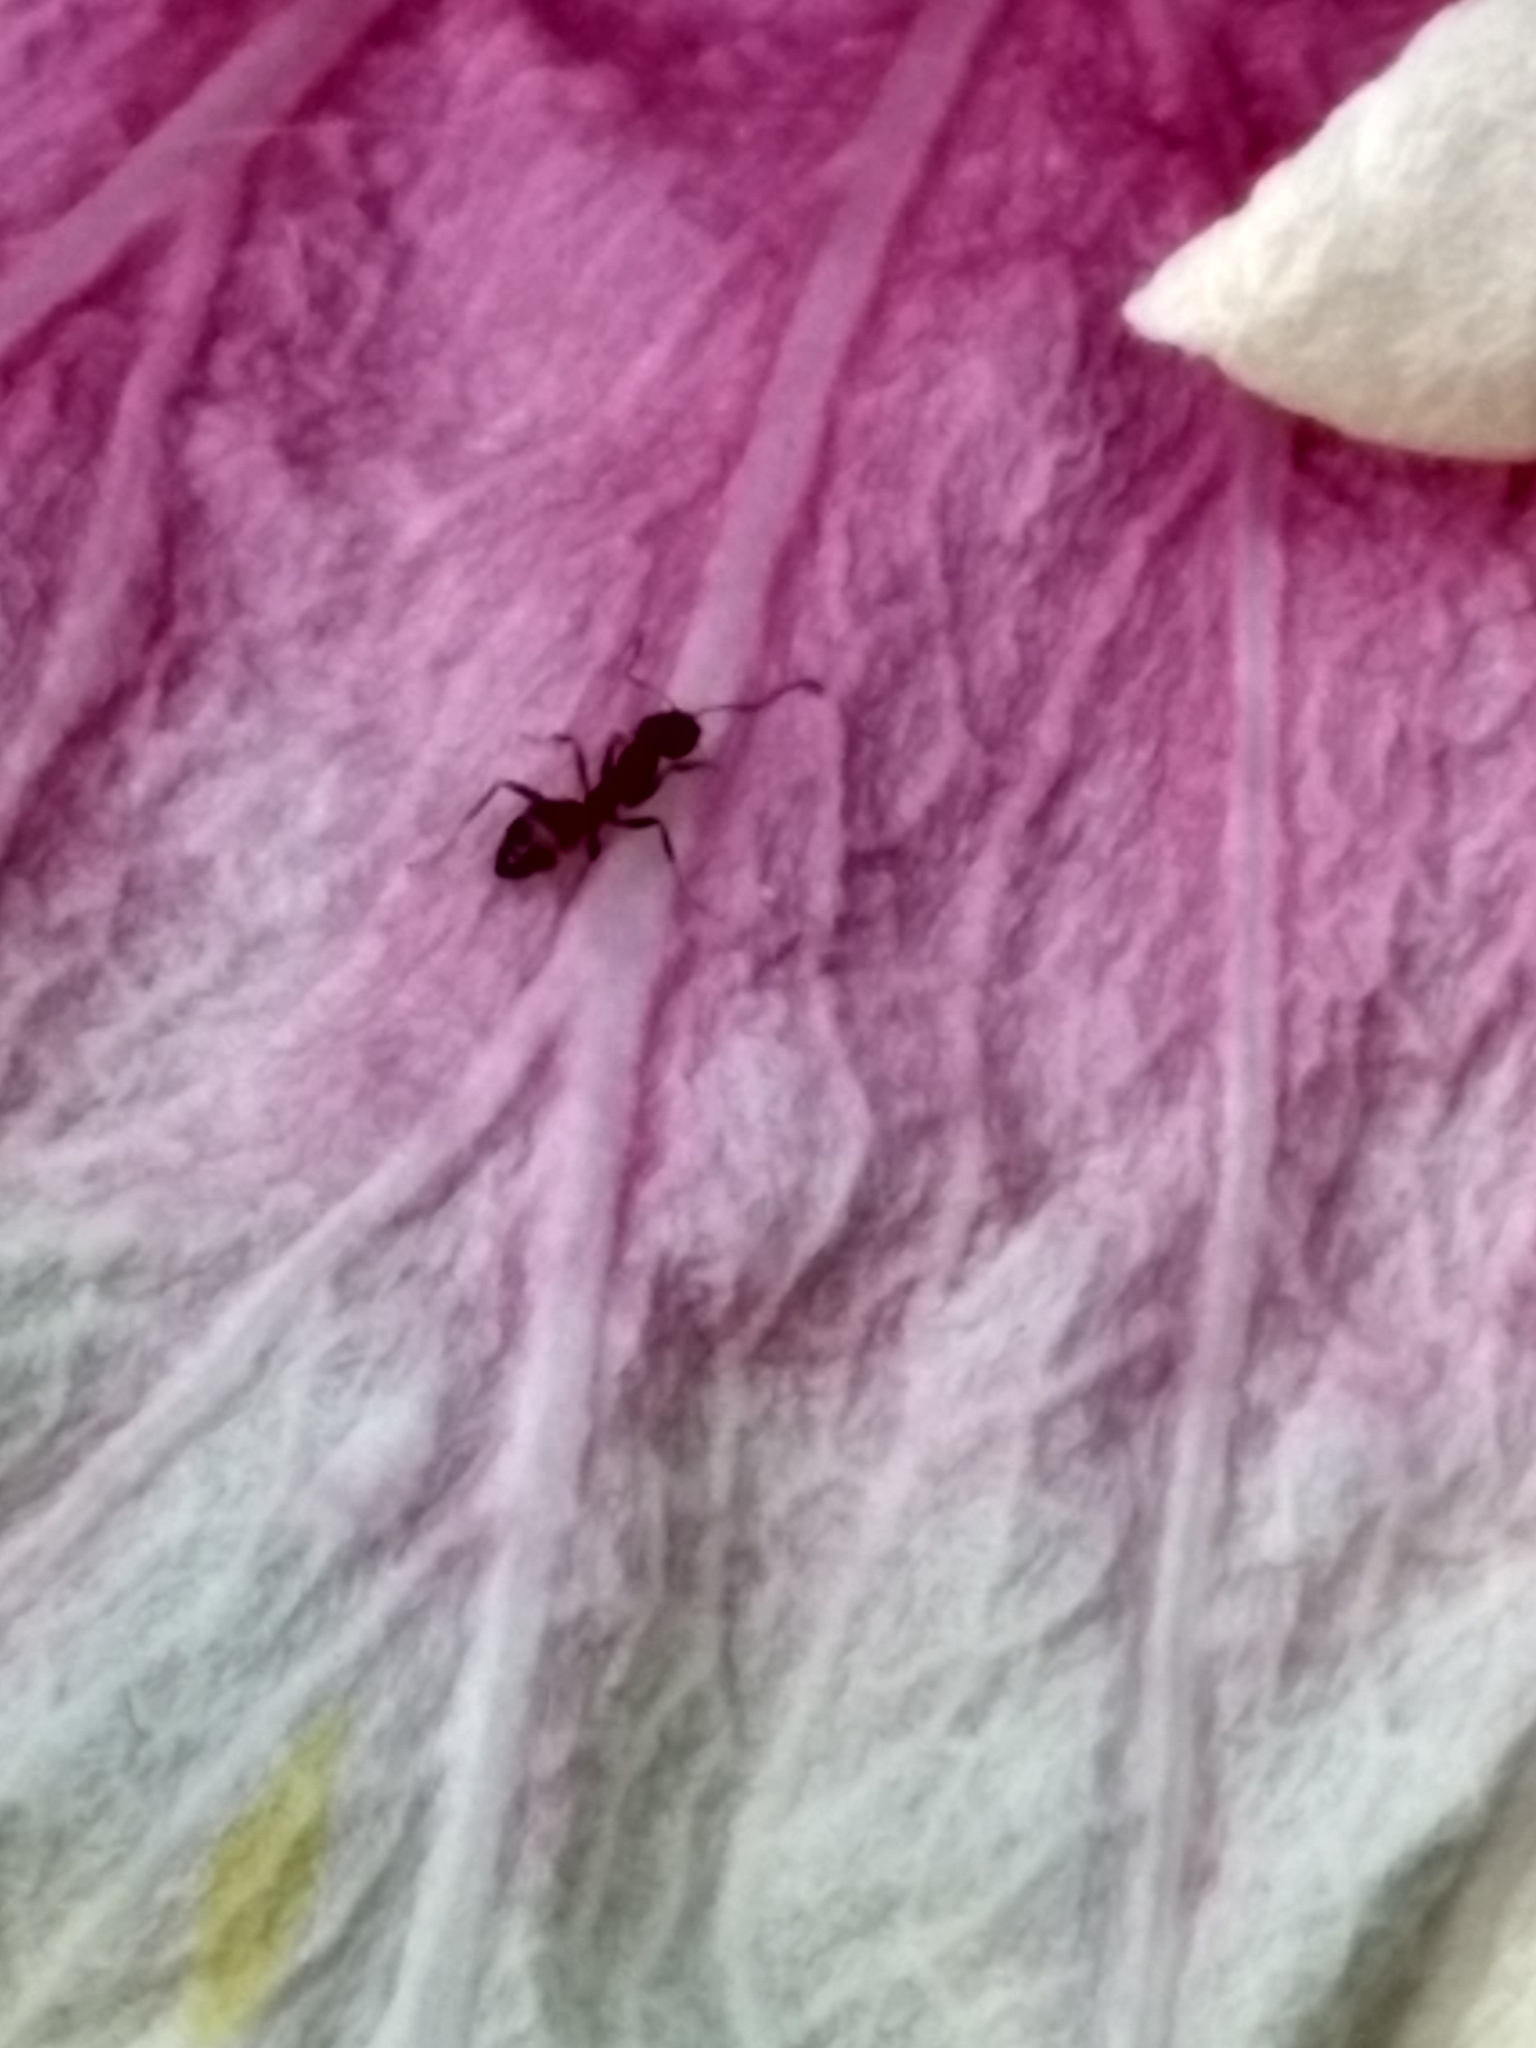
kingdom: Animalia
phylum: Arthropoda
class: Insecta
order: Hymenoptera
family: Formicidae
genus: Linepithema
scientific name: Linepithema humile
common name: Argentine ant
